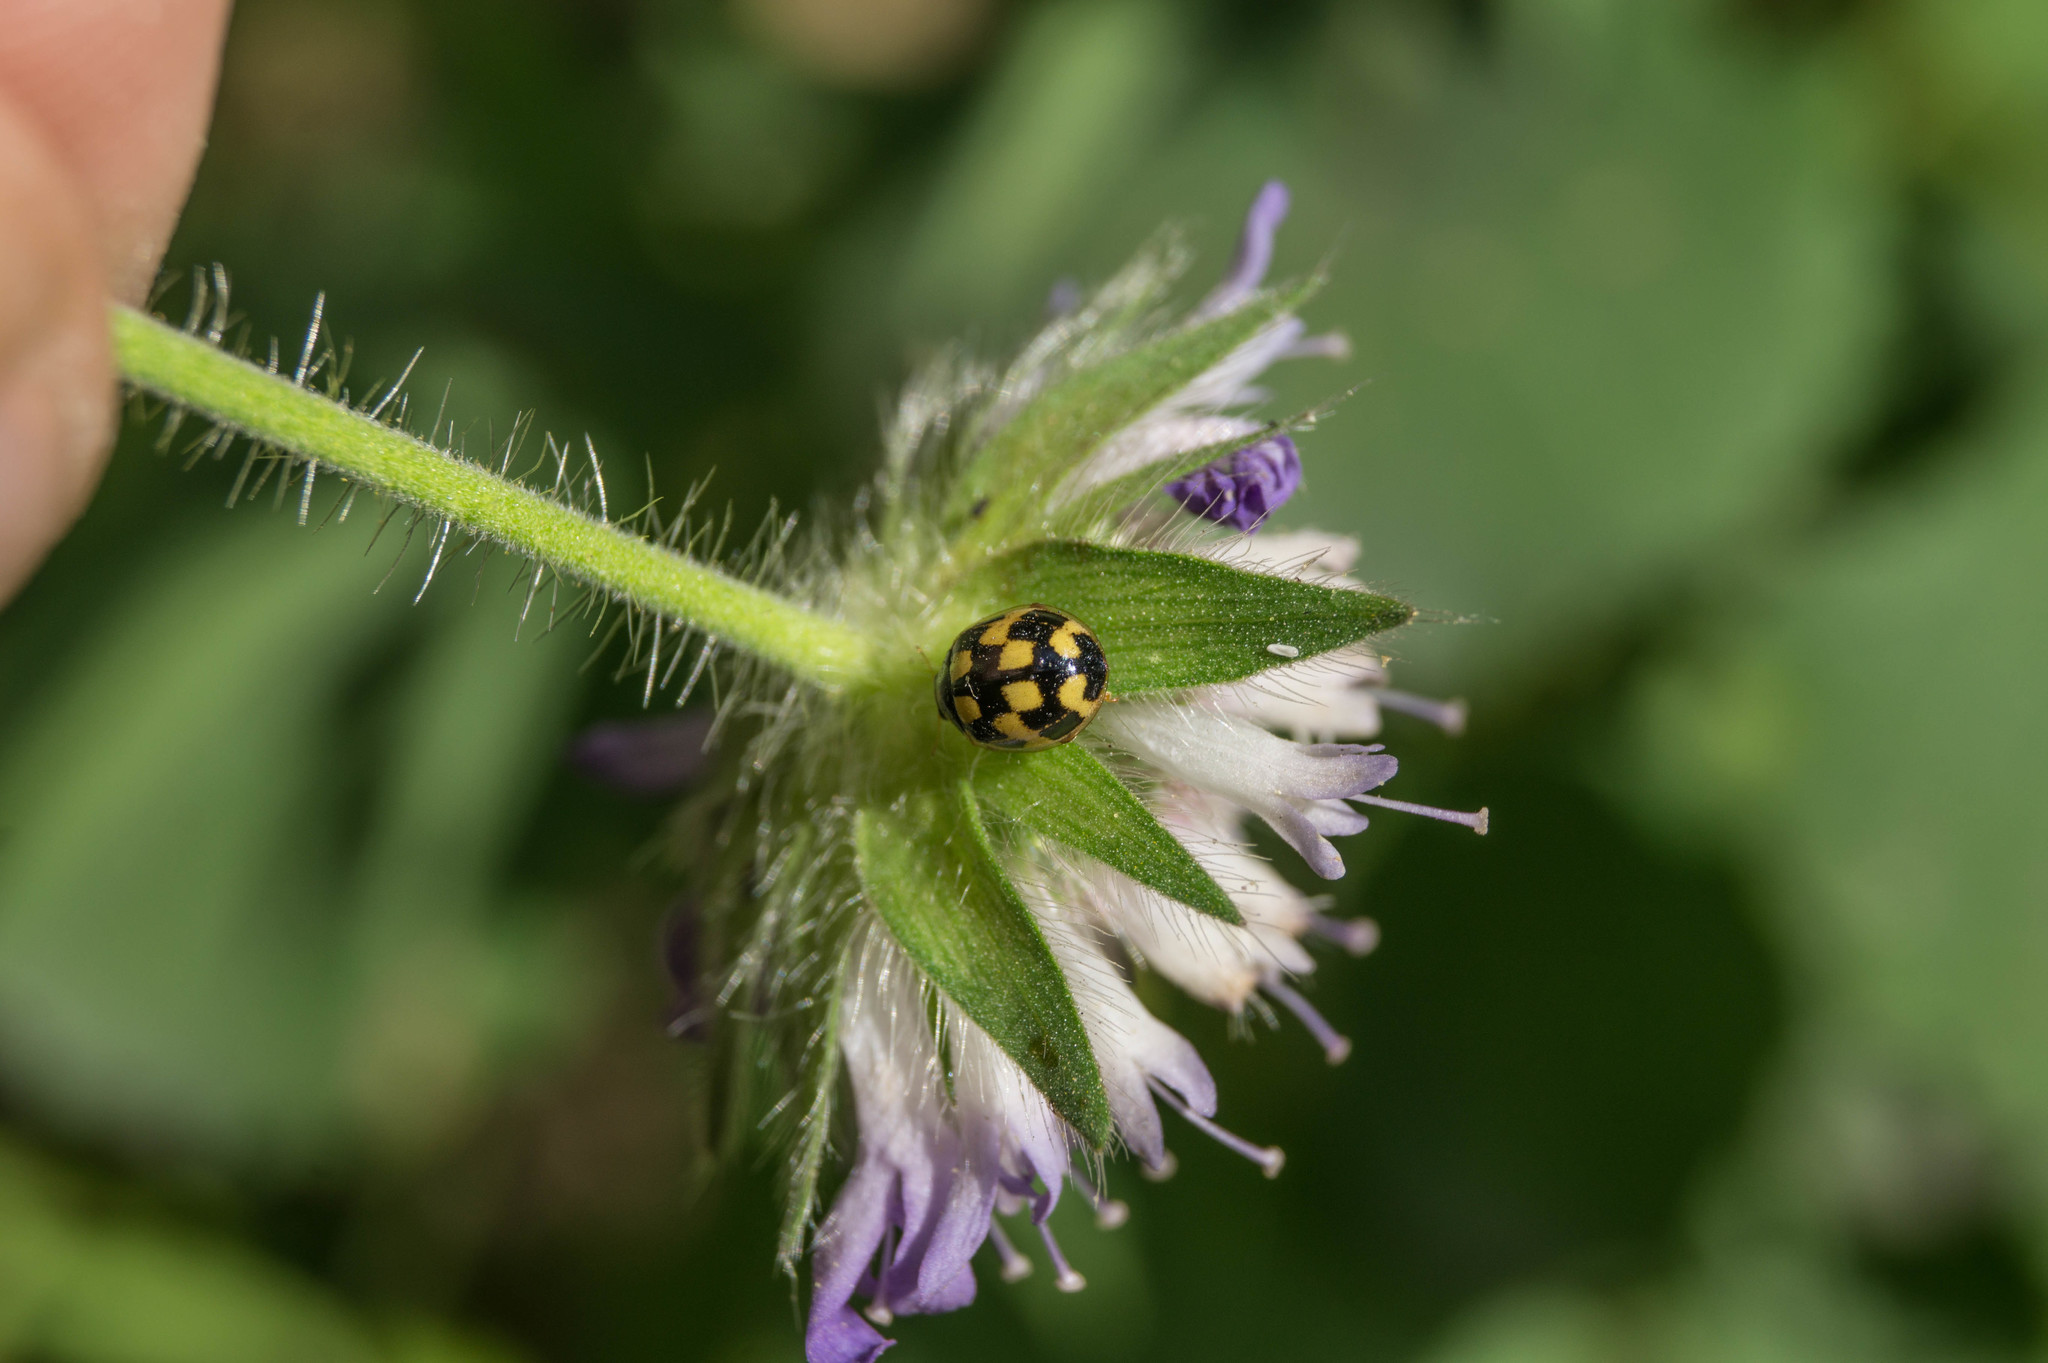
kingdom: Animalia
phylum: Arthropoda
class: Insecta
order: Coleoptera
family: Coccinellidae
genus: Propylaea
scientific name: Propylaea quatuordecimpunctata
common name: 14-spotted ladybird beetle
